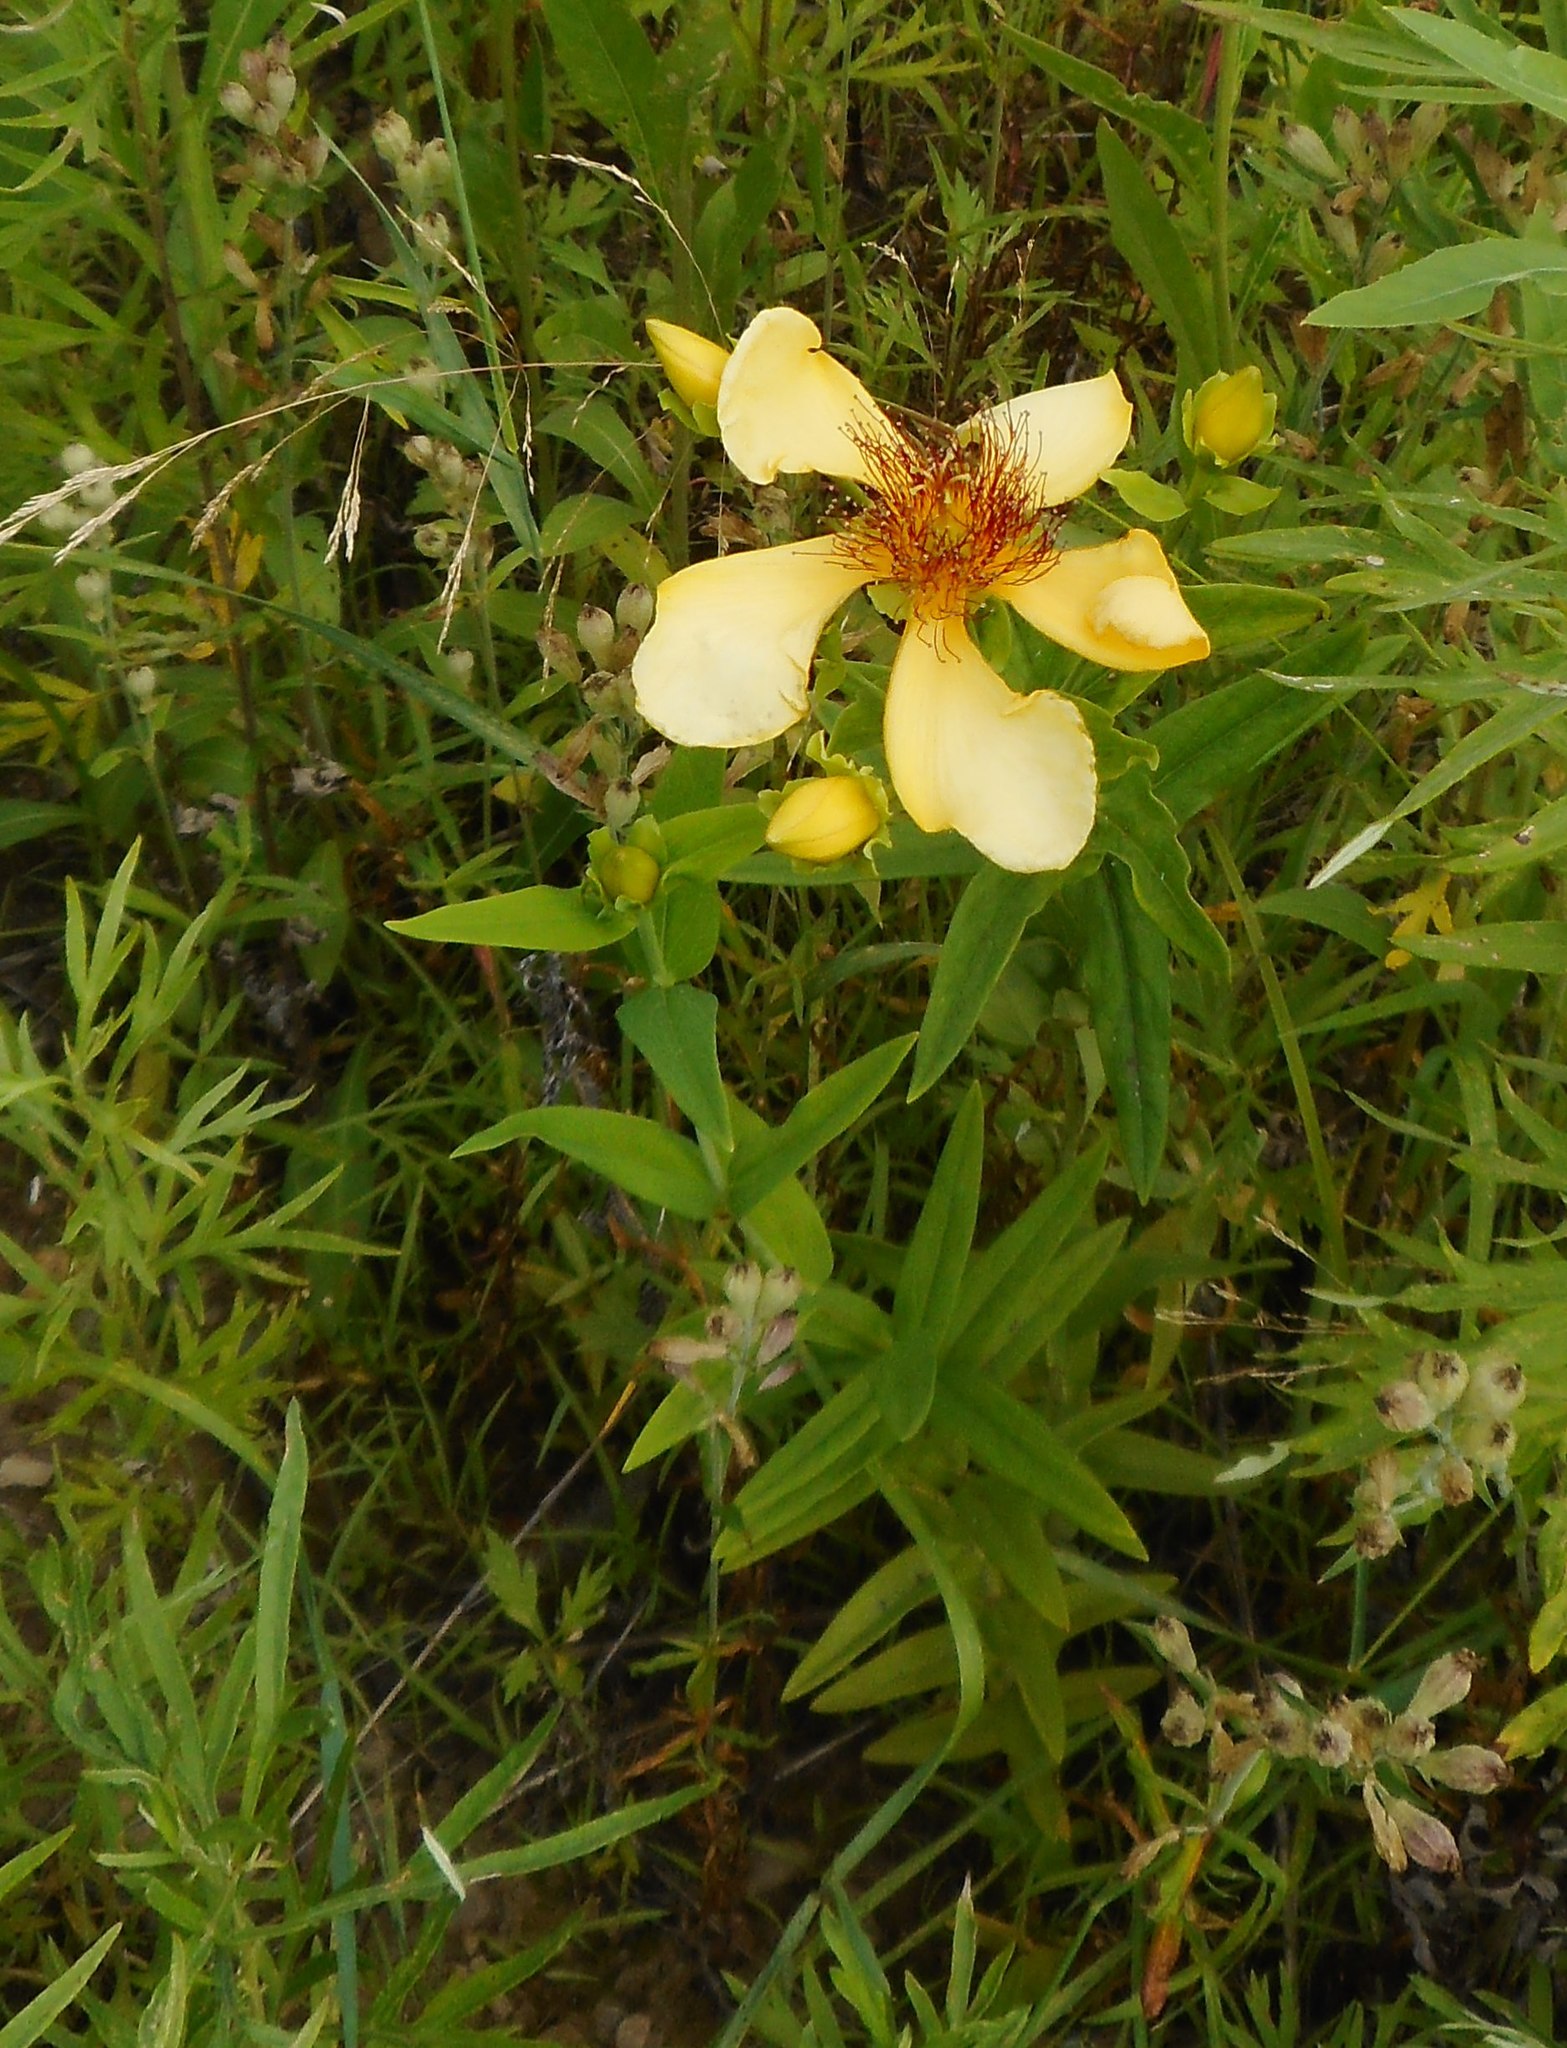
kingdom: Plantae
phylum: Tracheophyta
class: Magnoliopsida
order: Malpighiales
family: Hypericaceae
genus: Hypericum
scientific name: Hypericum ascyron
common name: Giant st. john's-wort
